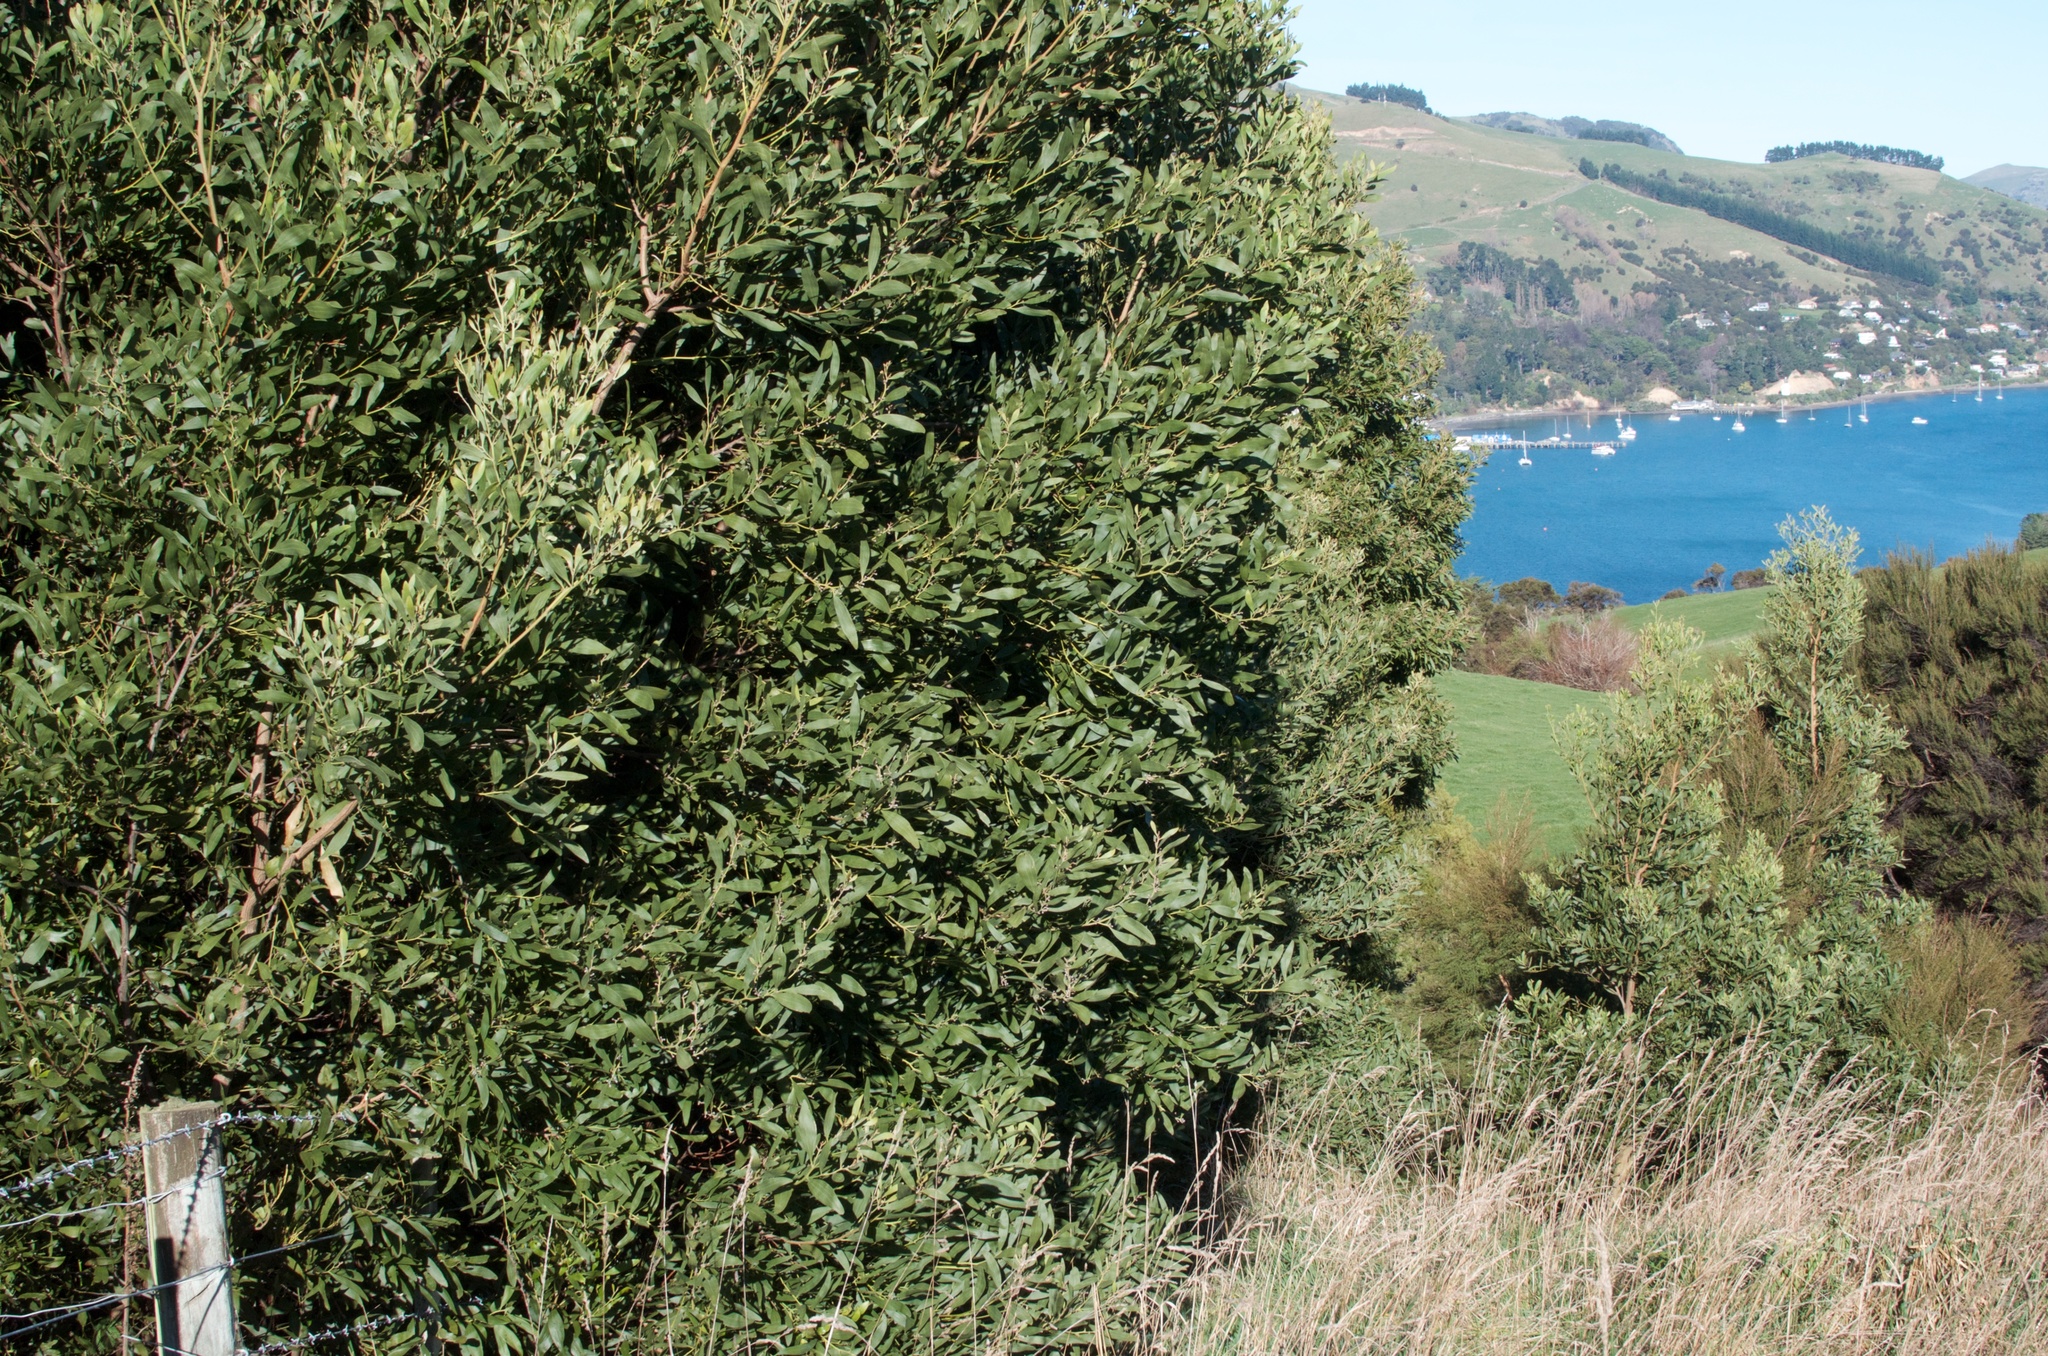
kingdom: Plantae
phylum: Tracheophyta
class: Magnoliopsida
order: Fabales
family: Fabaceae
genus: Acacia
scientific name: Acacia melanoxylon
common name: Blackwood
